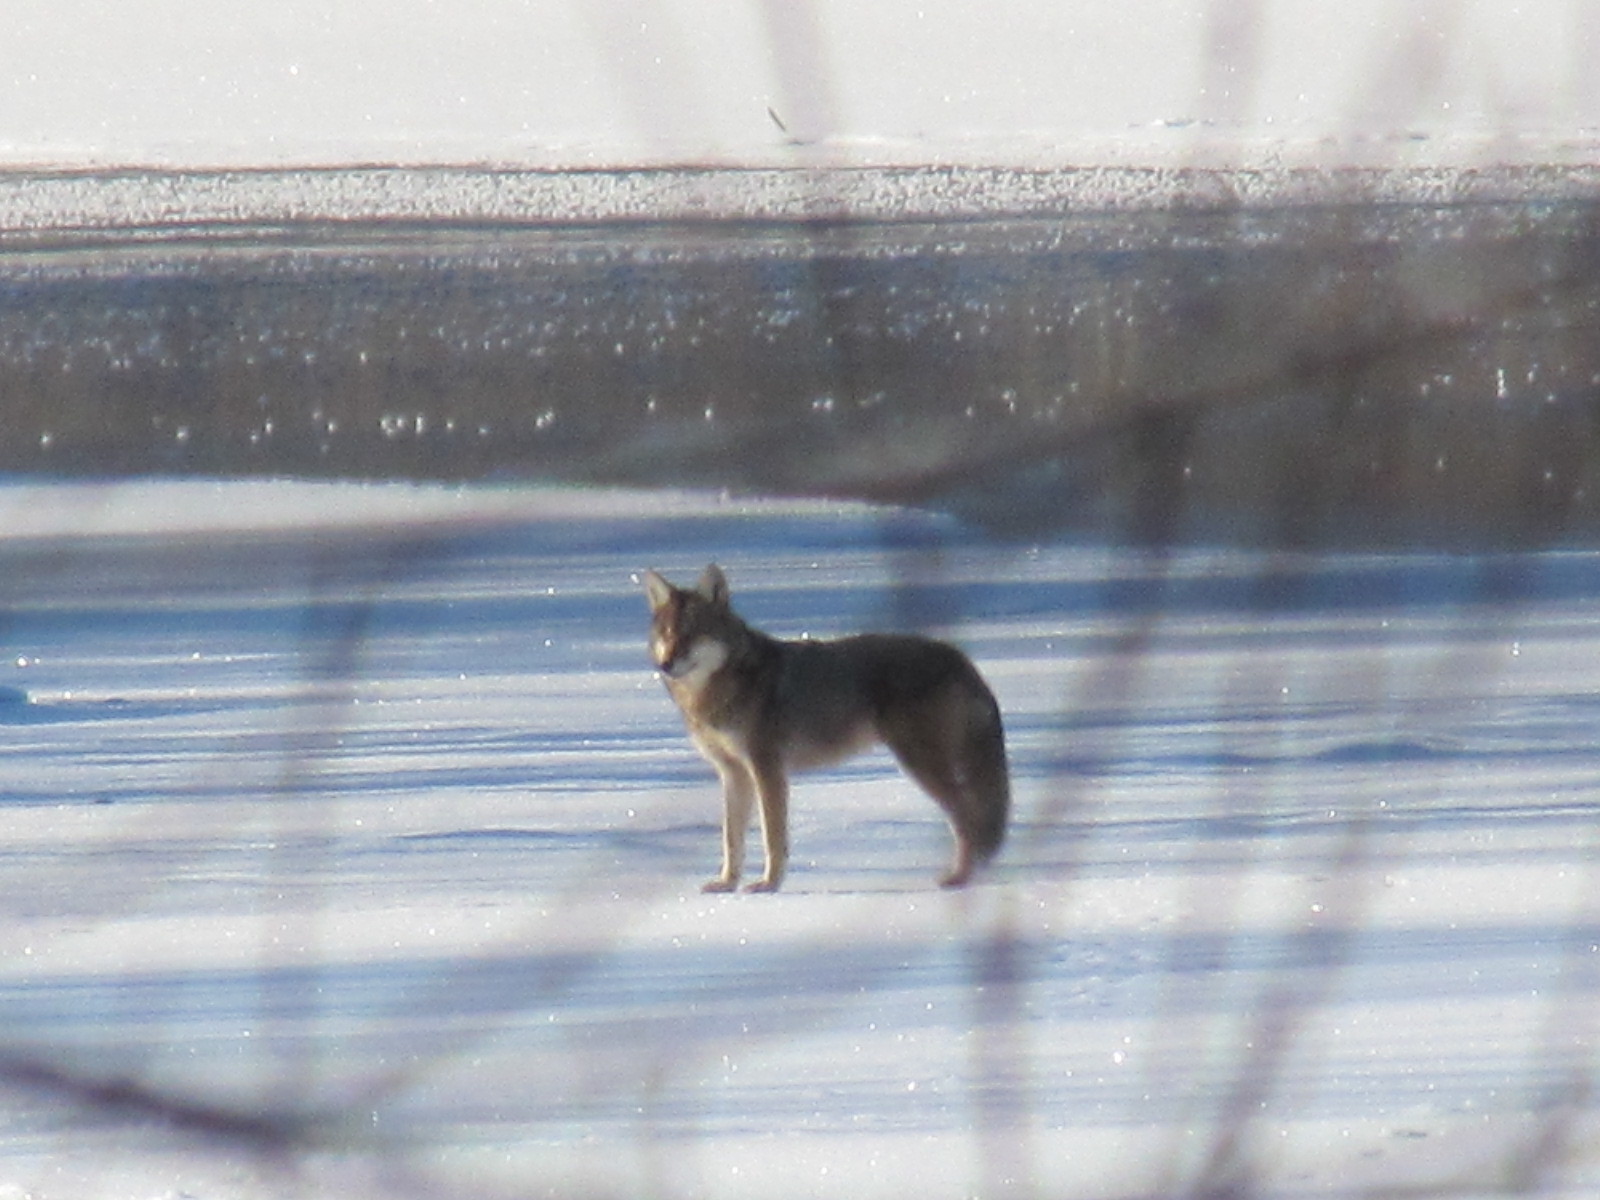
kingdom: Animalia
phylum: Chordata
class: Mammalia
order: Carnivora
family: Canidae
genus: Canis
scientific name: Canis latrans
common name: Coyote
